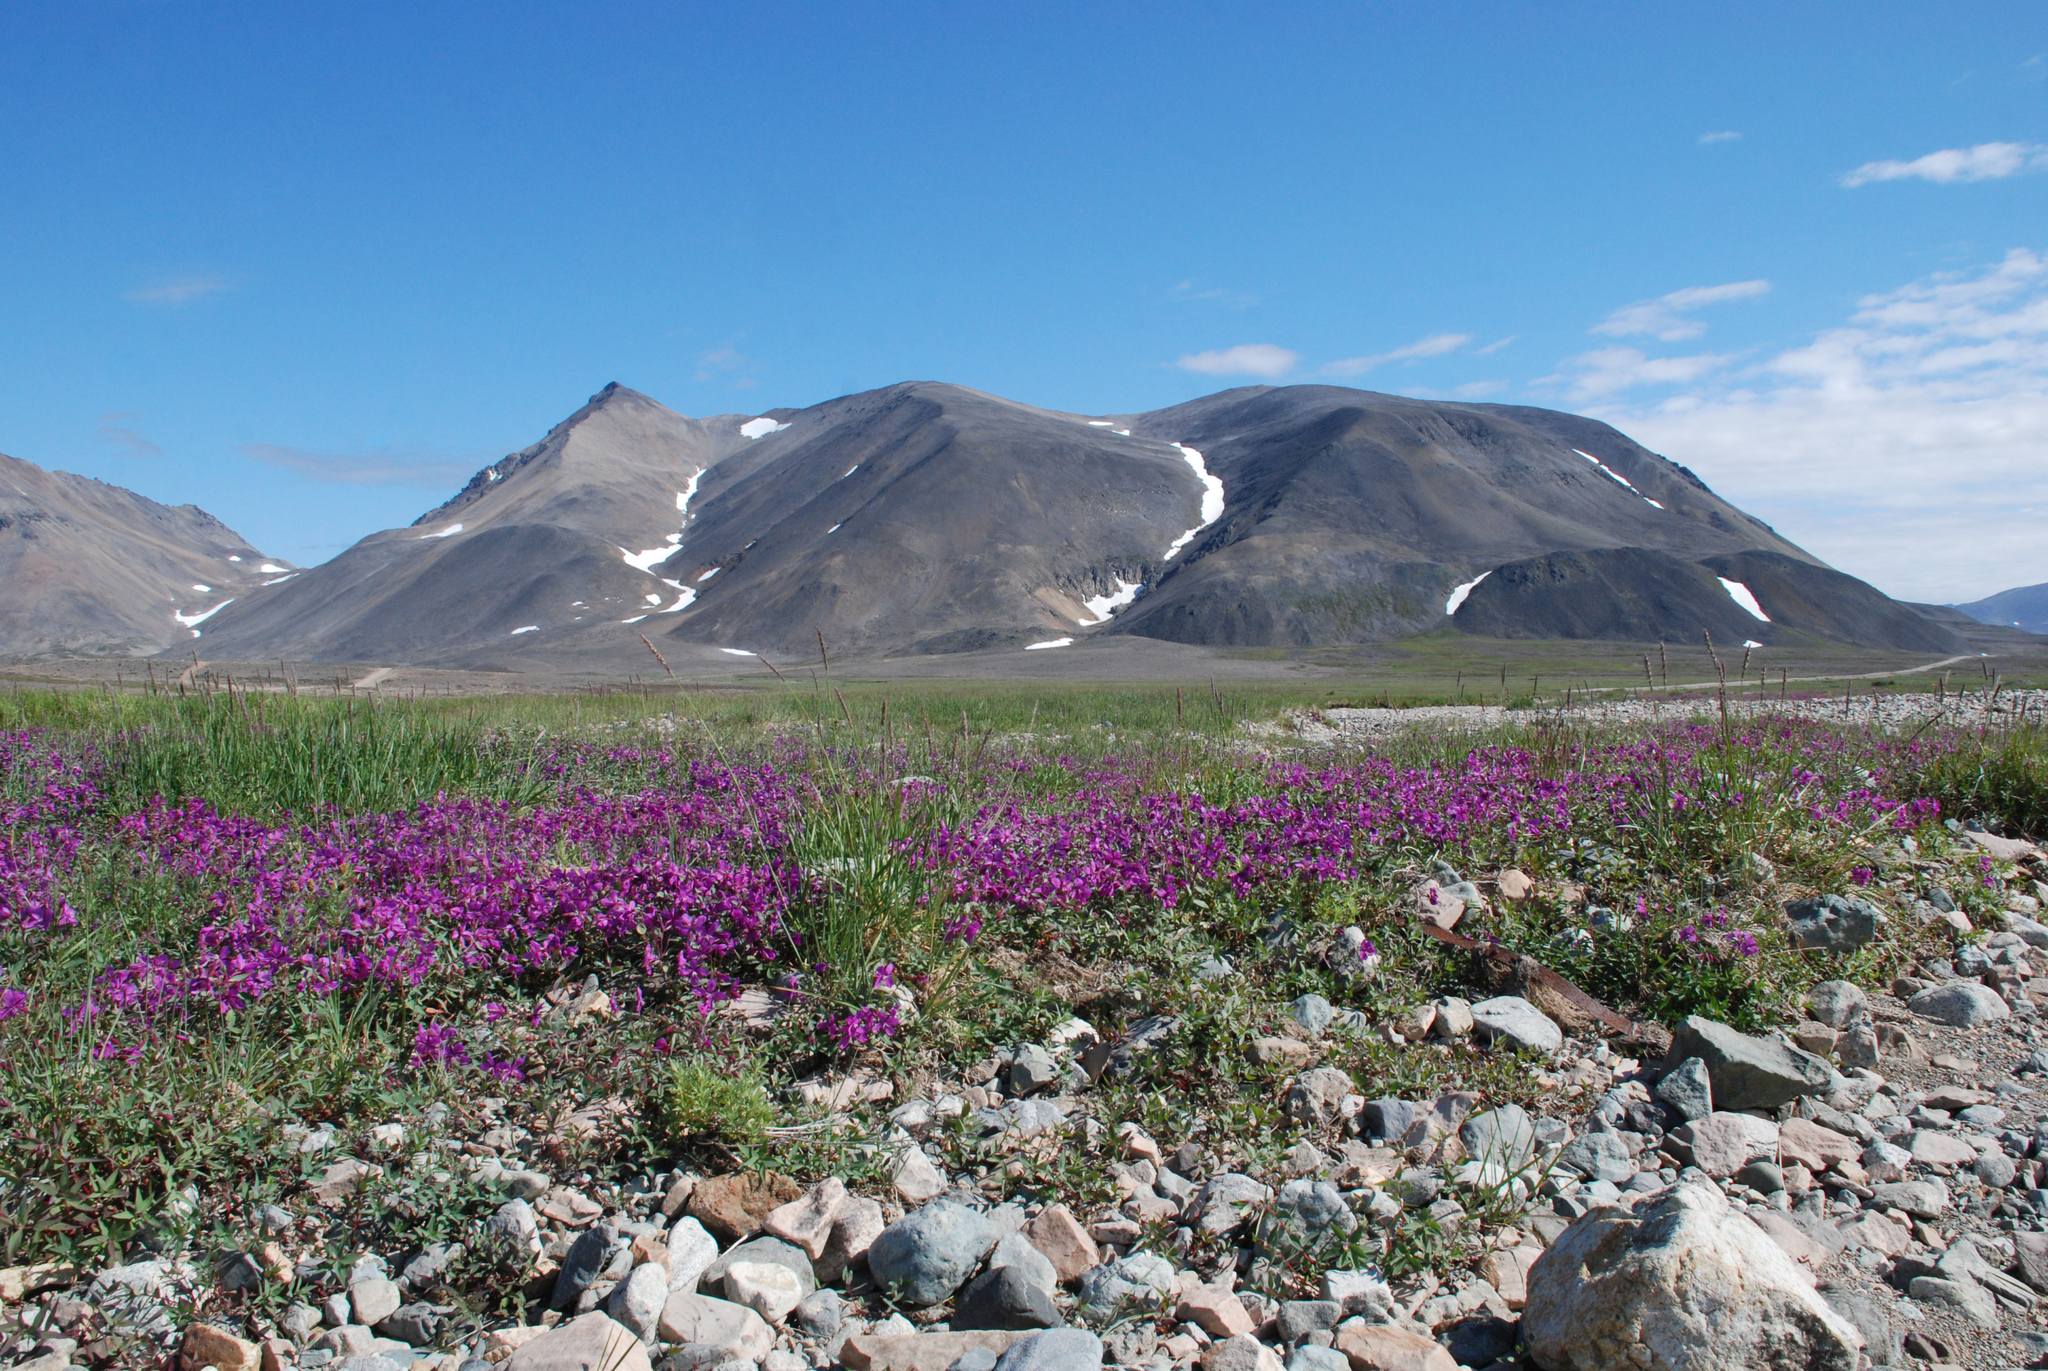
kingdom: Plantae
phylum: Tracheophyta
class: Magnoliopsida
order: Myrtales
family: Onagraceae
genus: Chamaenerion
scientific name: Chamaenerion latifolium
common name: Dwarf fireweed
